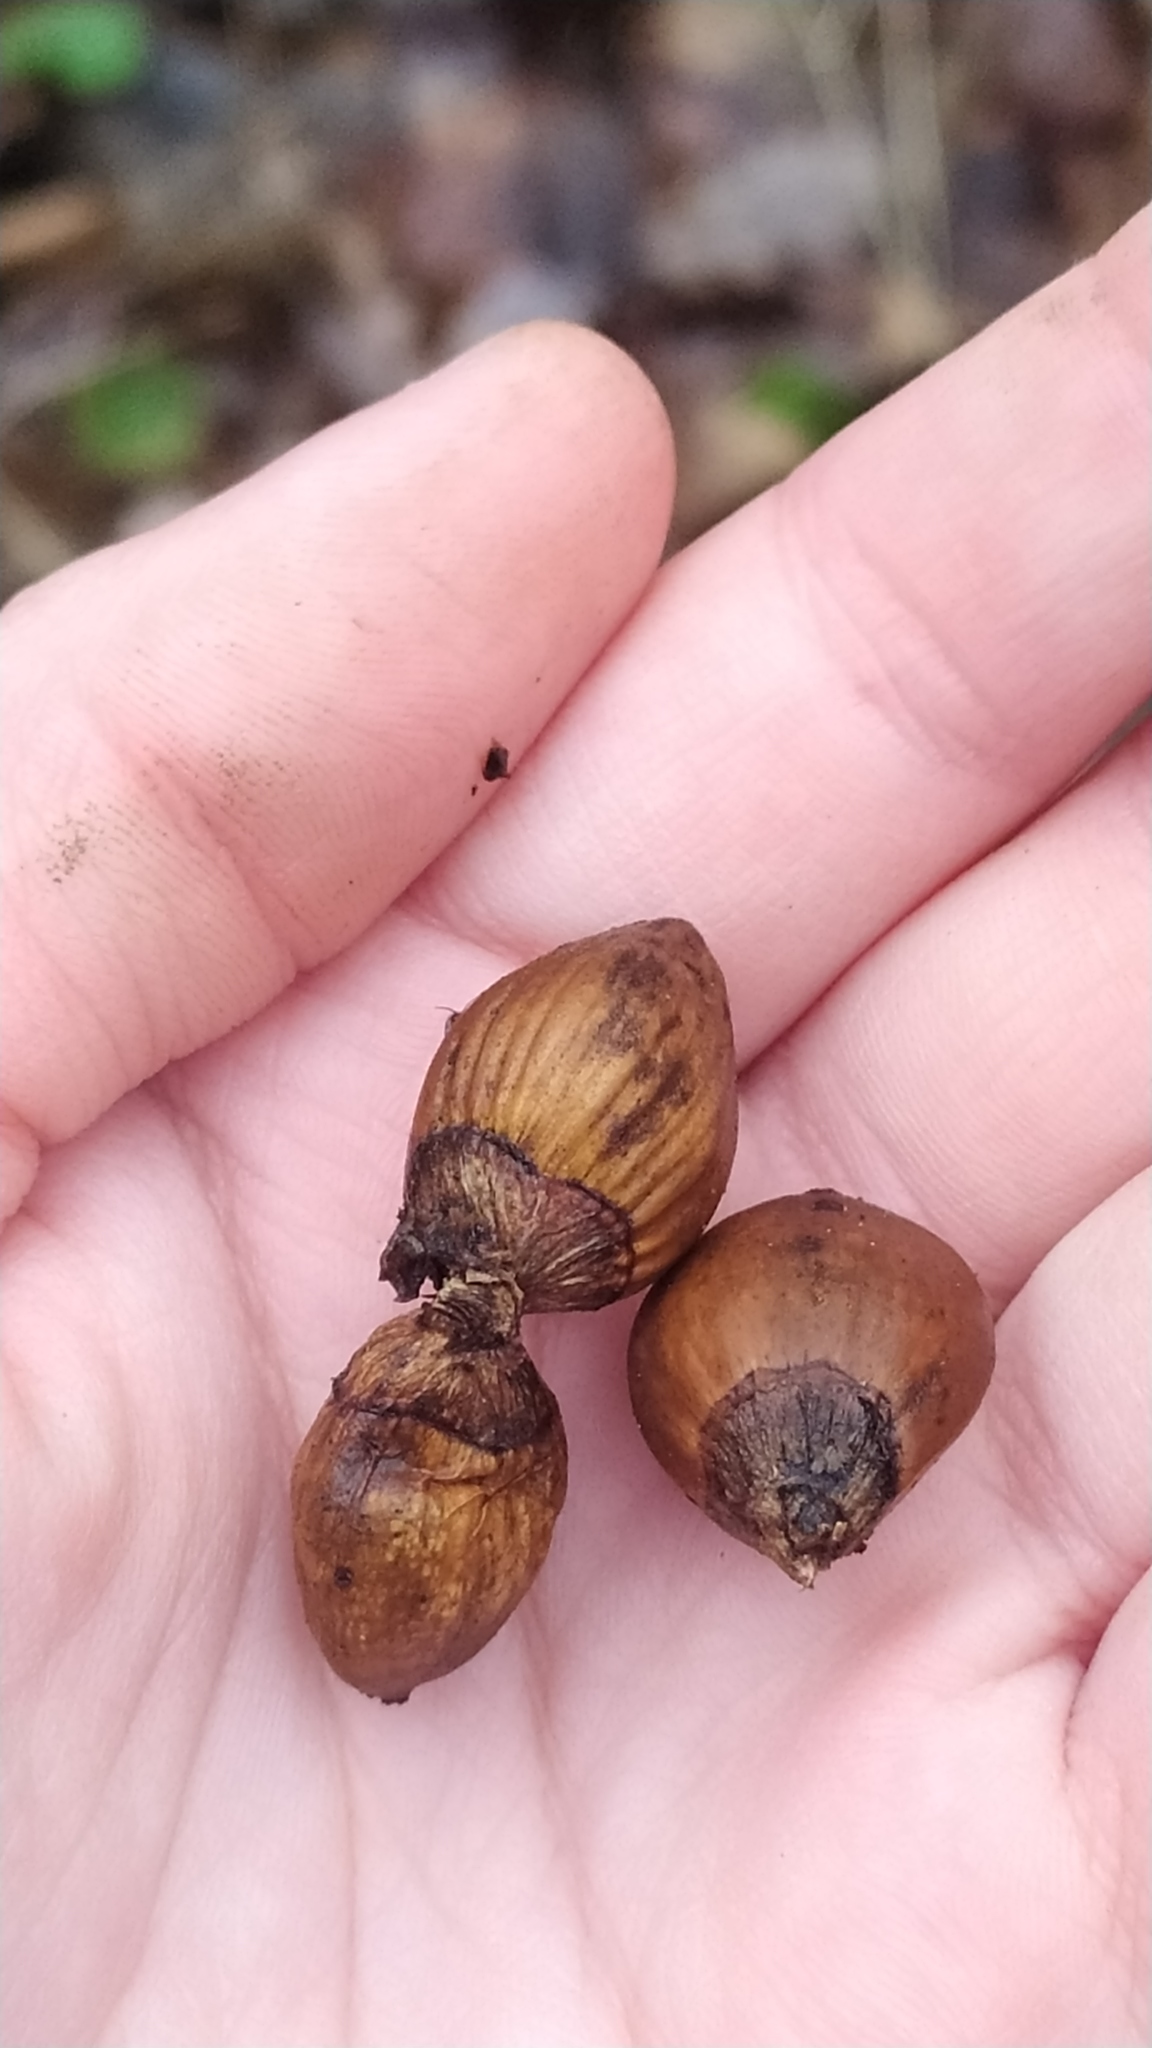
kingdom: Plantae
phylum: Tracheophyta
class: Magnoliopsida
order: Fagales
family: Betulaceae
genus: Corylus
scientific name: Corylus avellana
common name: European hazel
